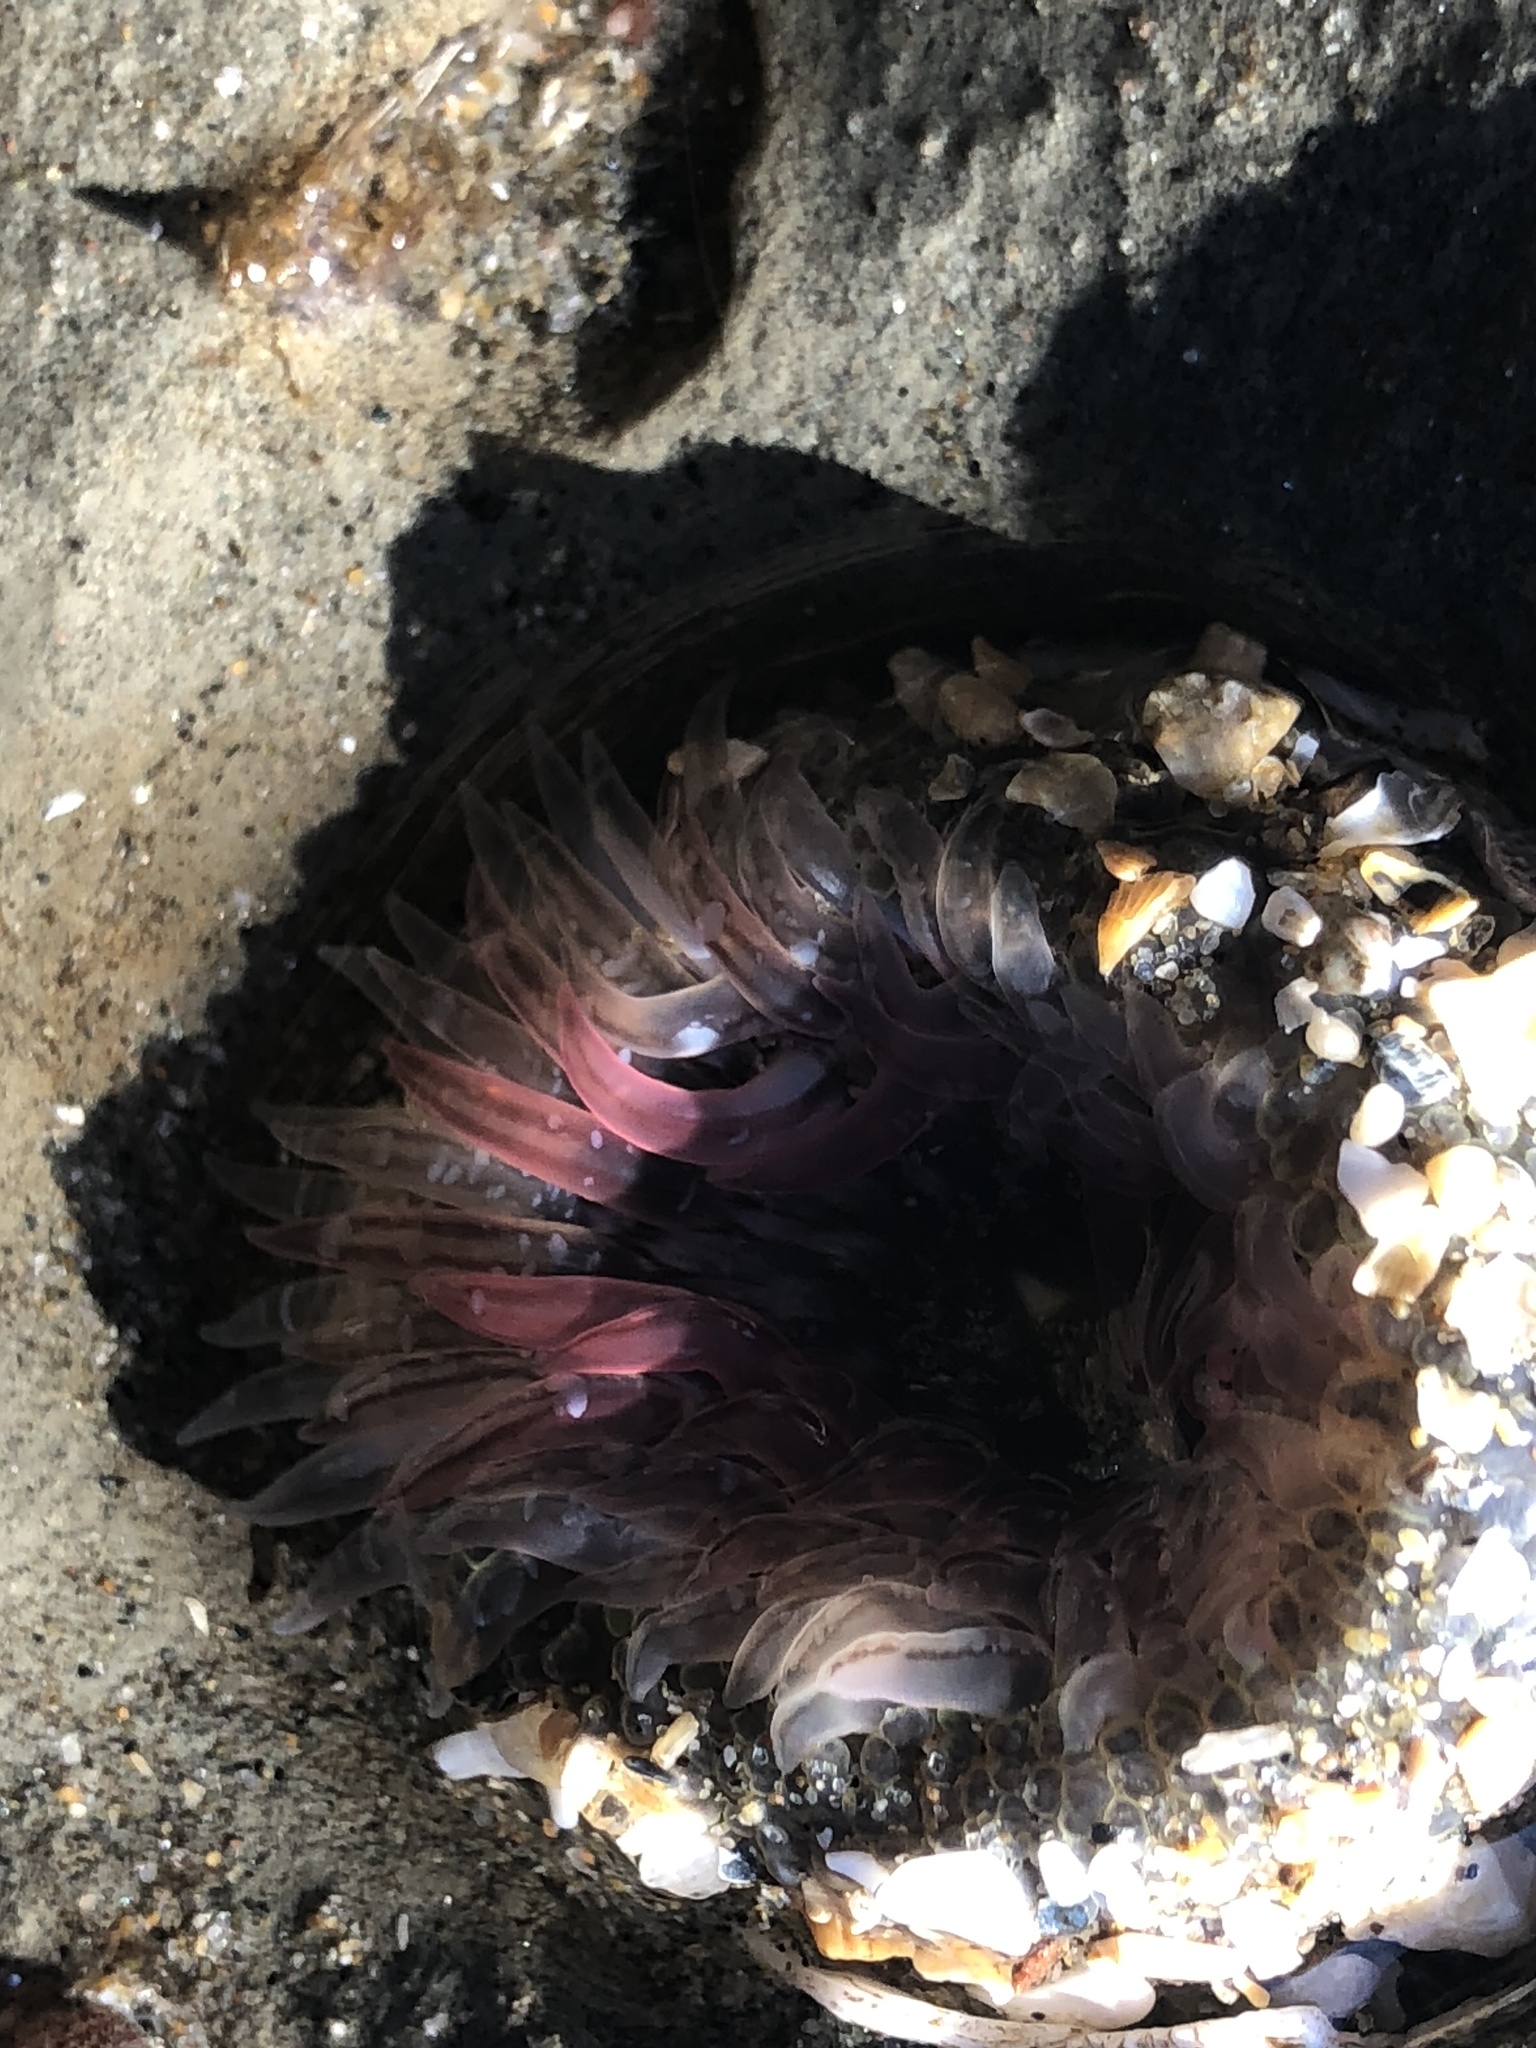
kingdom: Animalia
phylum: Cnidaria
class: Anthozoa
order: Actiniaria
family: Actiniidae
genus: Anthopleura
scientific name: Anthopleura artemisia
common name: Buried sea anemone
